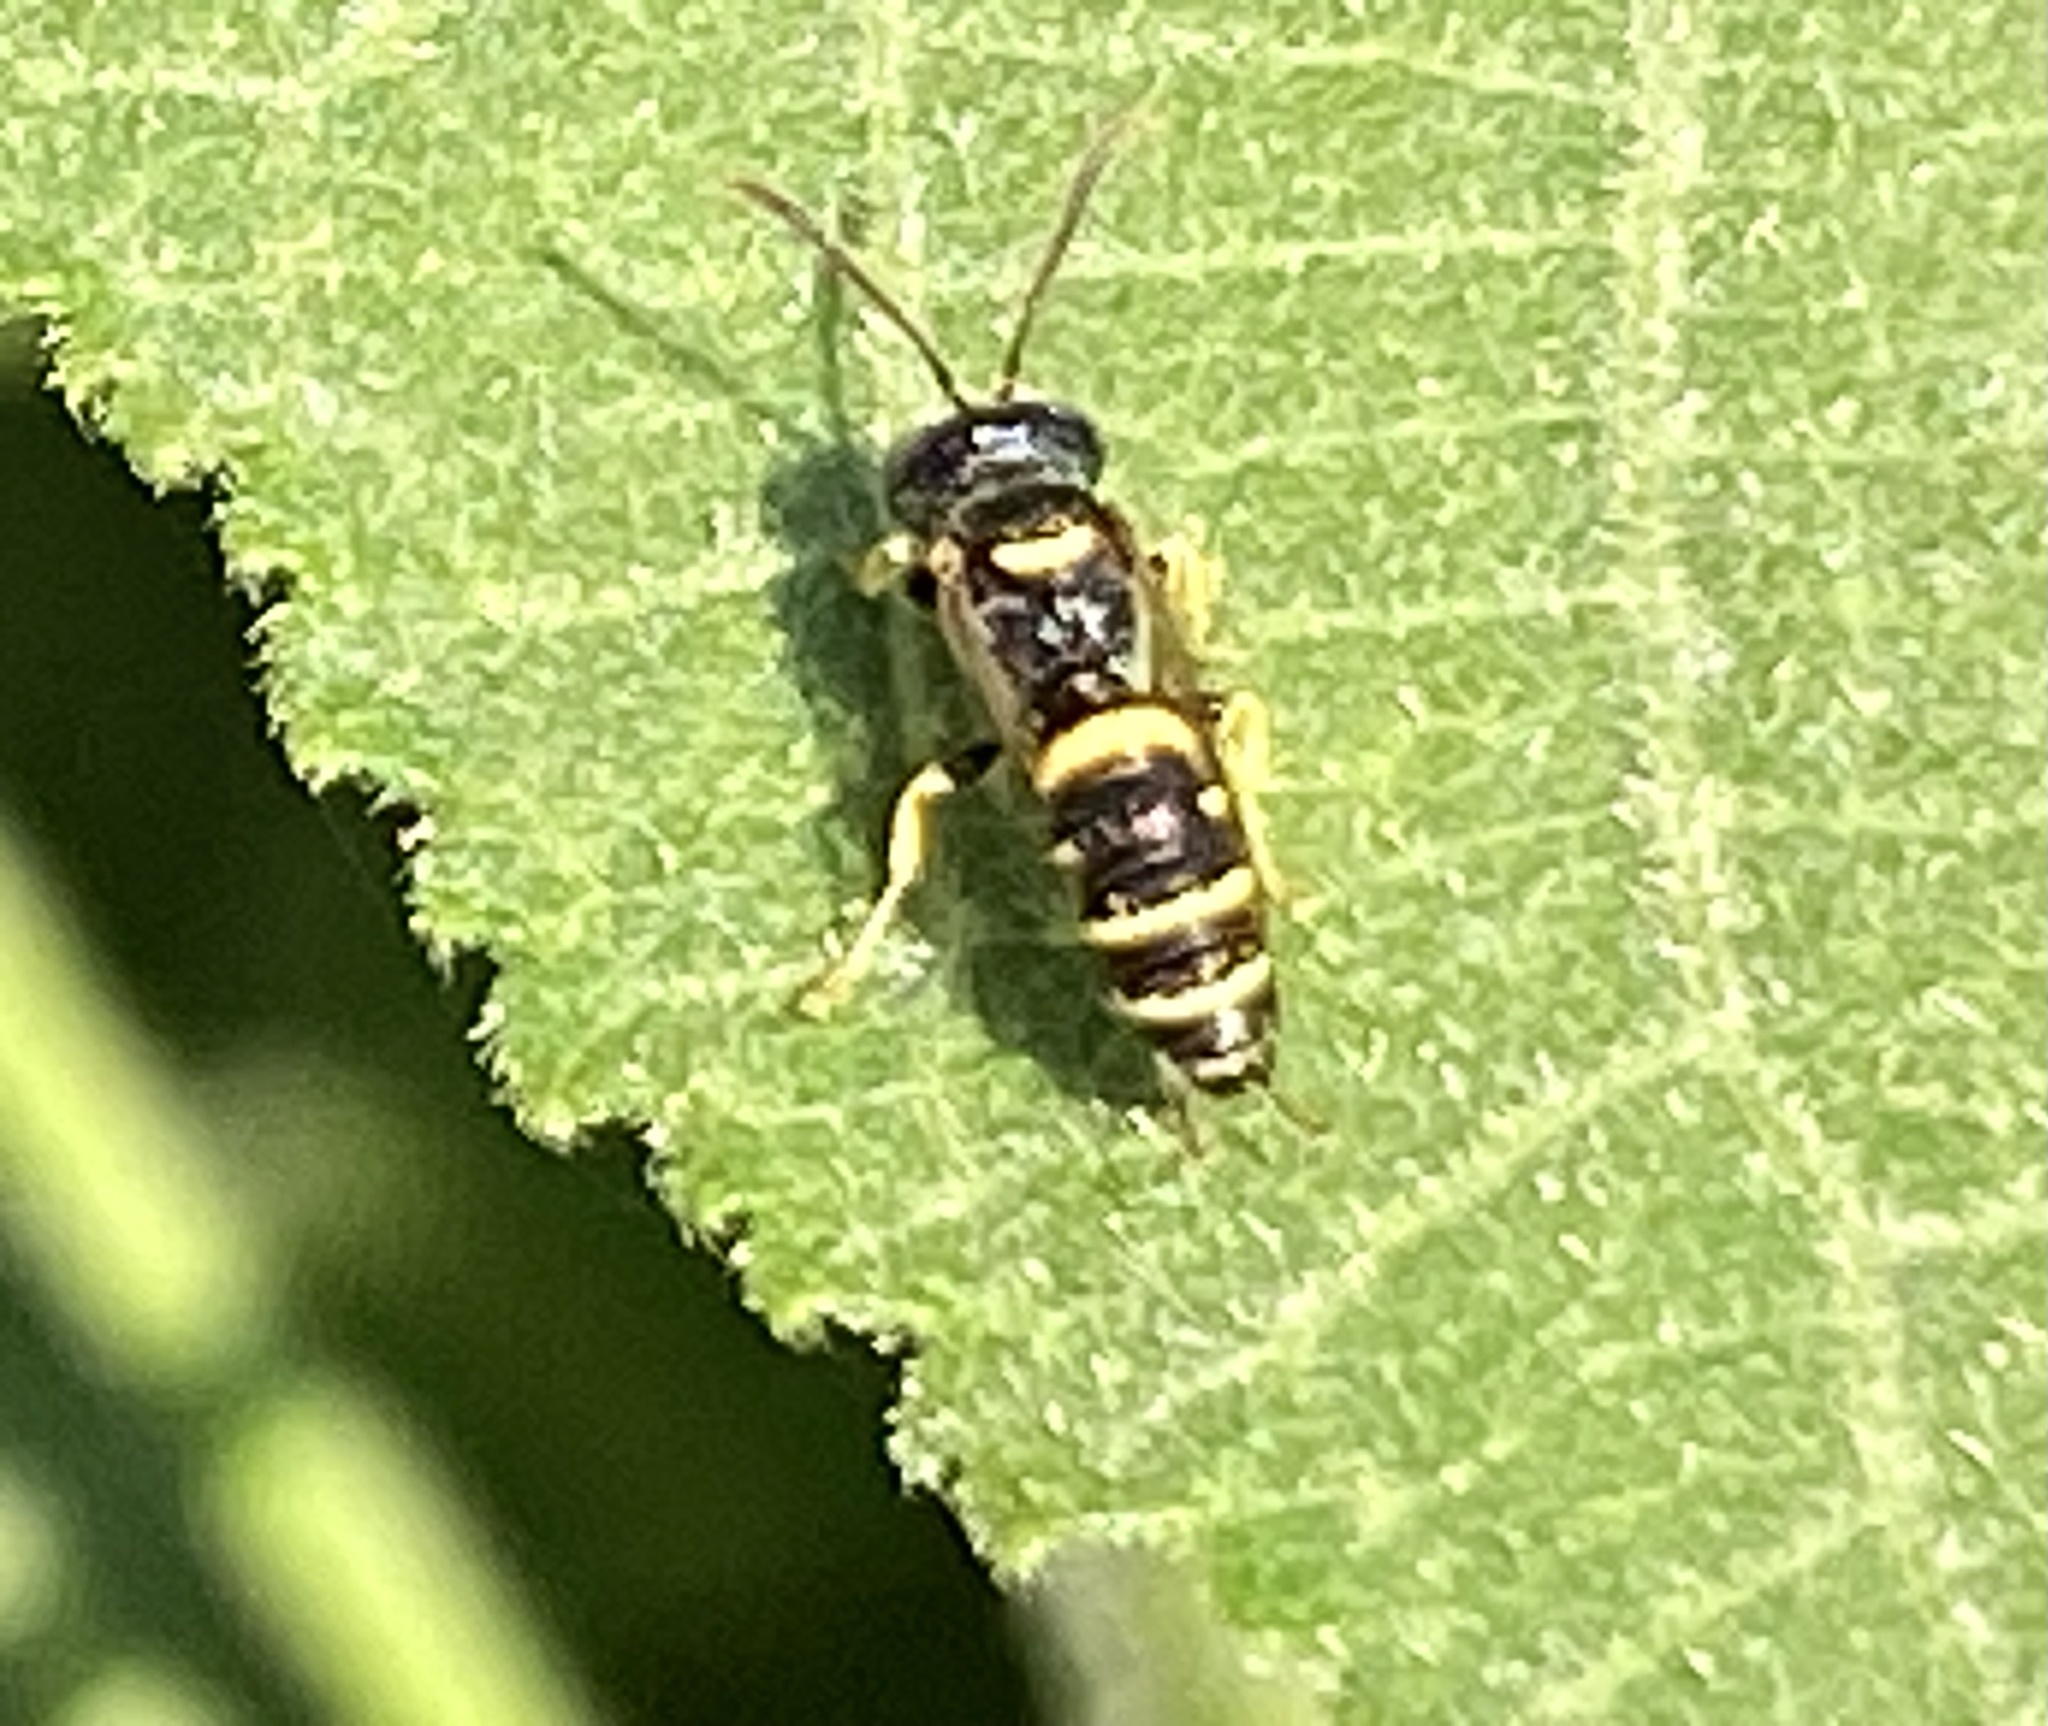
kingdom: Animalia
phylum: Arthropoda
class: Insecta
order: Hymenoptera
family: Crabronidae
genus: Cerceris
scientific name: Cerceris kennicottii
